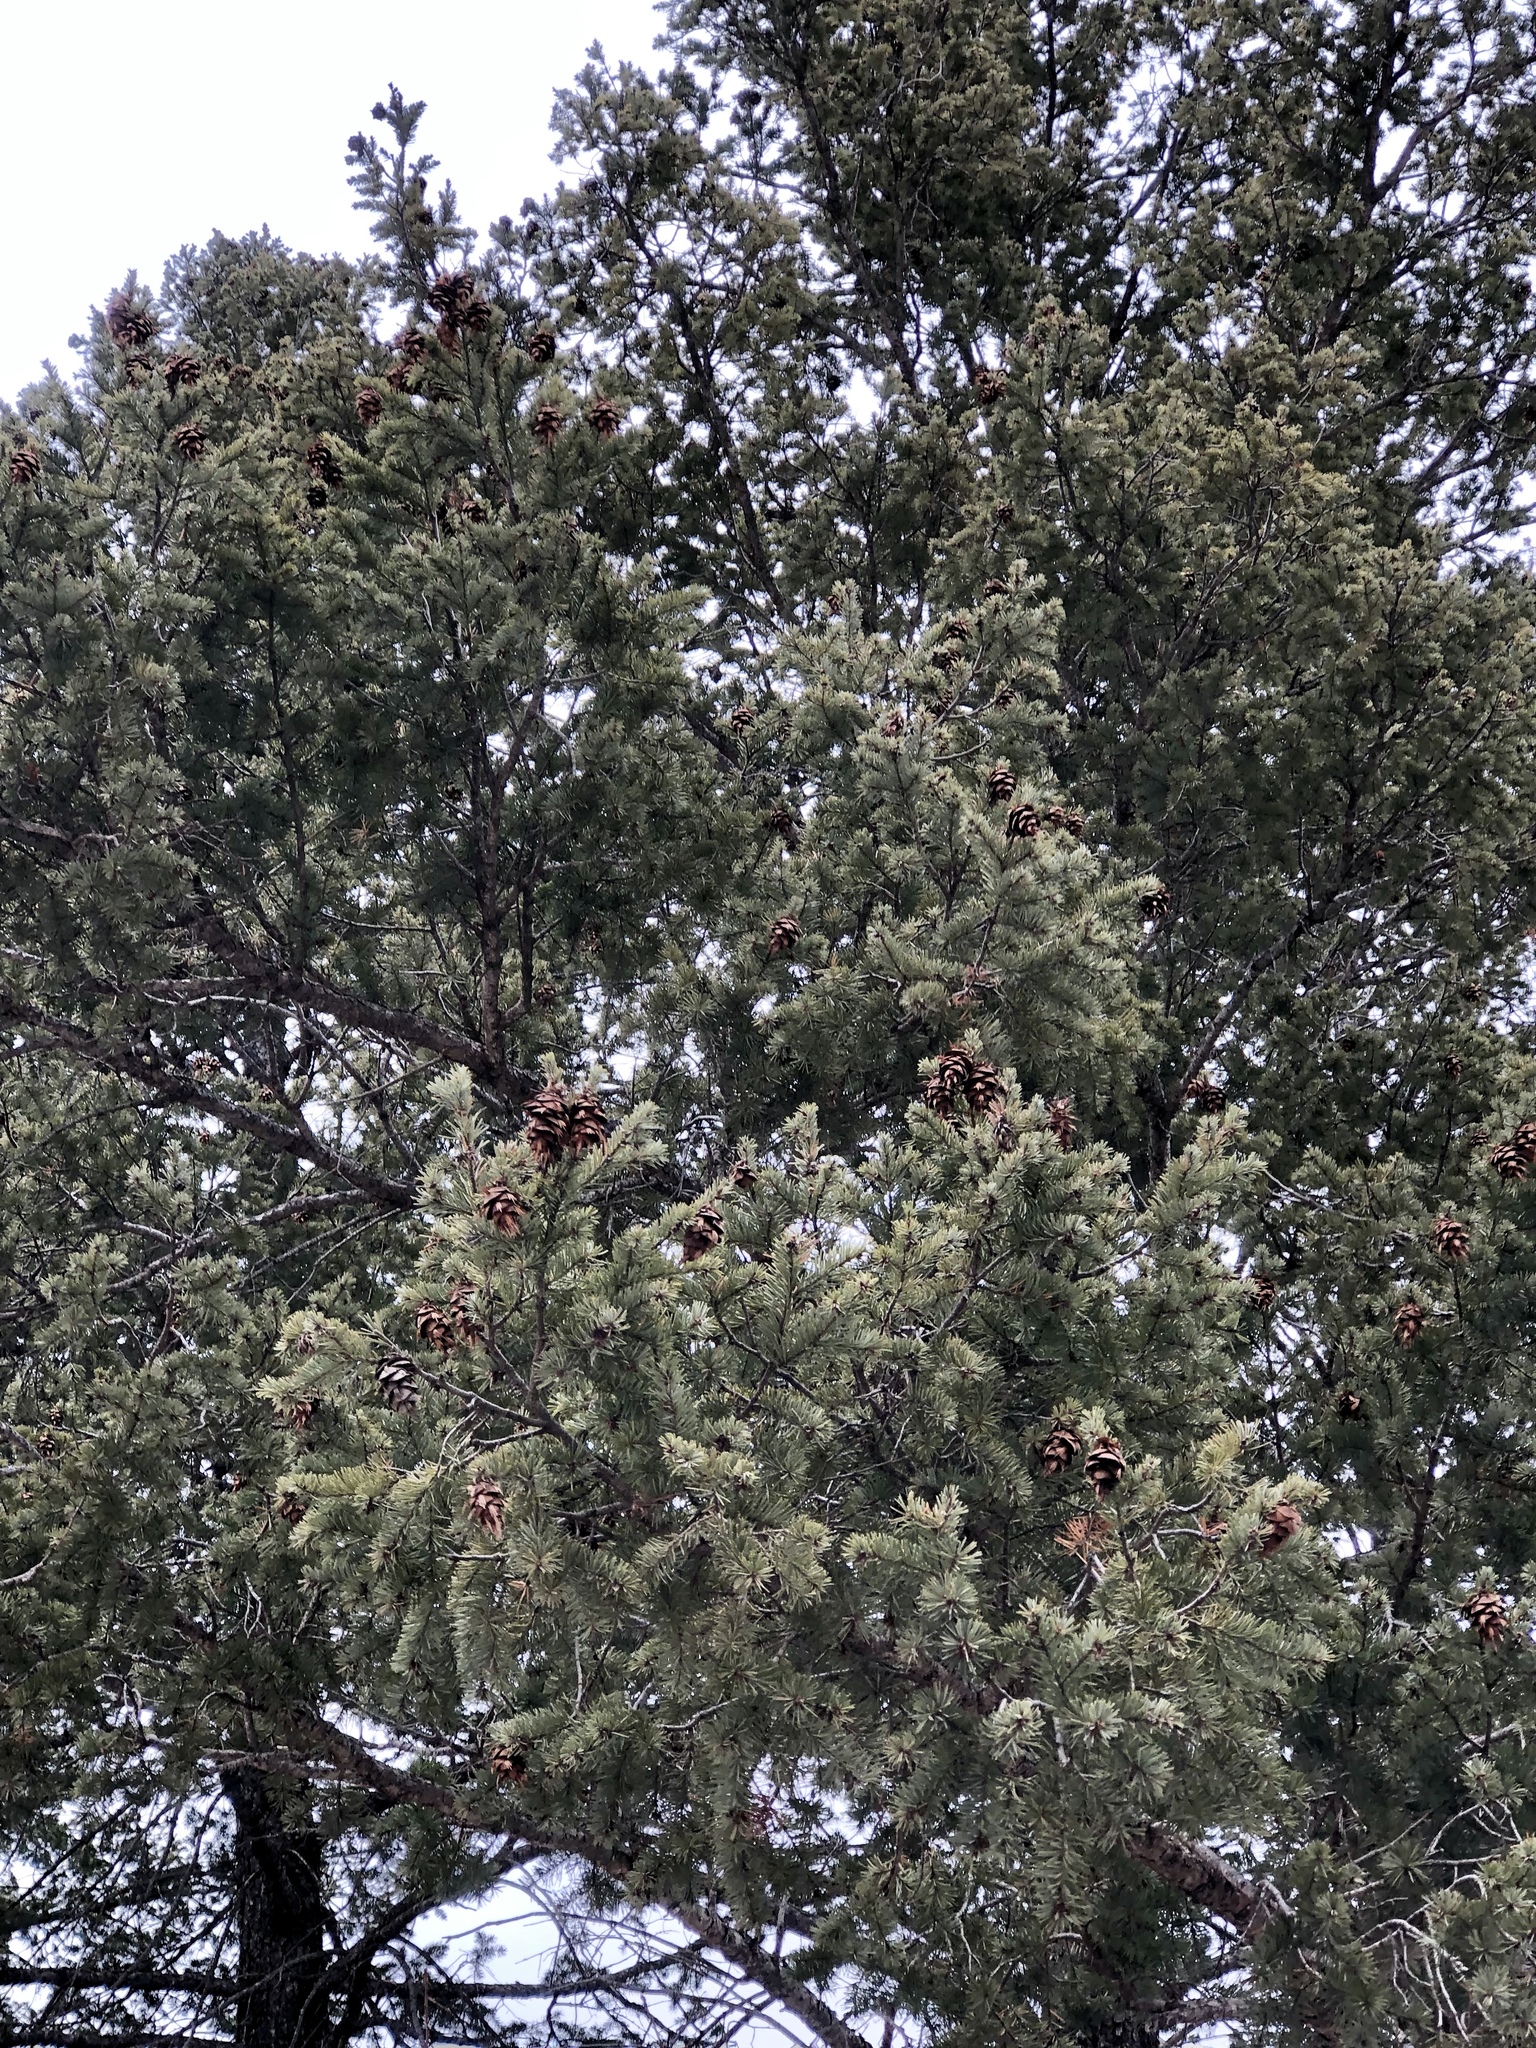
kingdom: Plantae
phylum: Tracheophyta
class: Pinopsida
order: Pinales
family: Pinaceae
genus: Pseudotsuga
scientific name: Pseudotsuga menziesii
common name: Douglas fir
